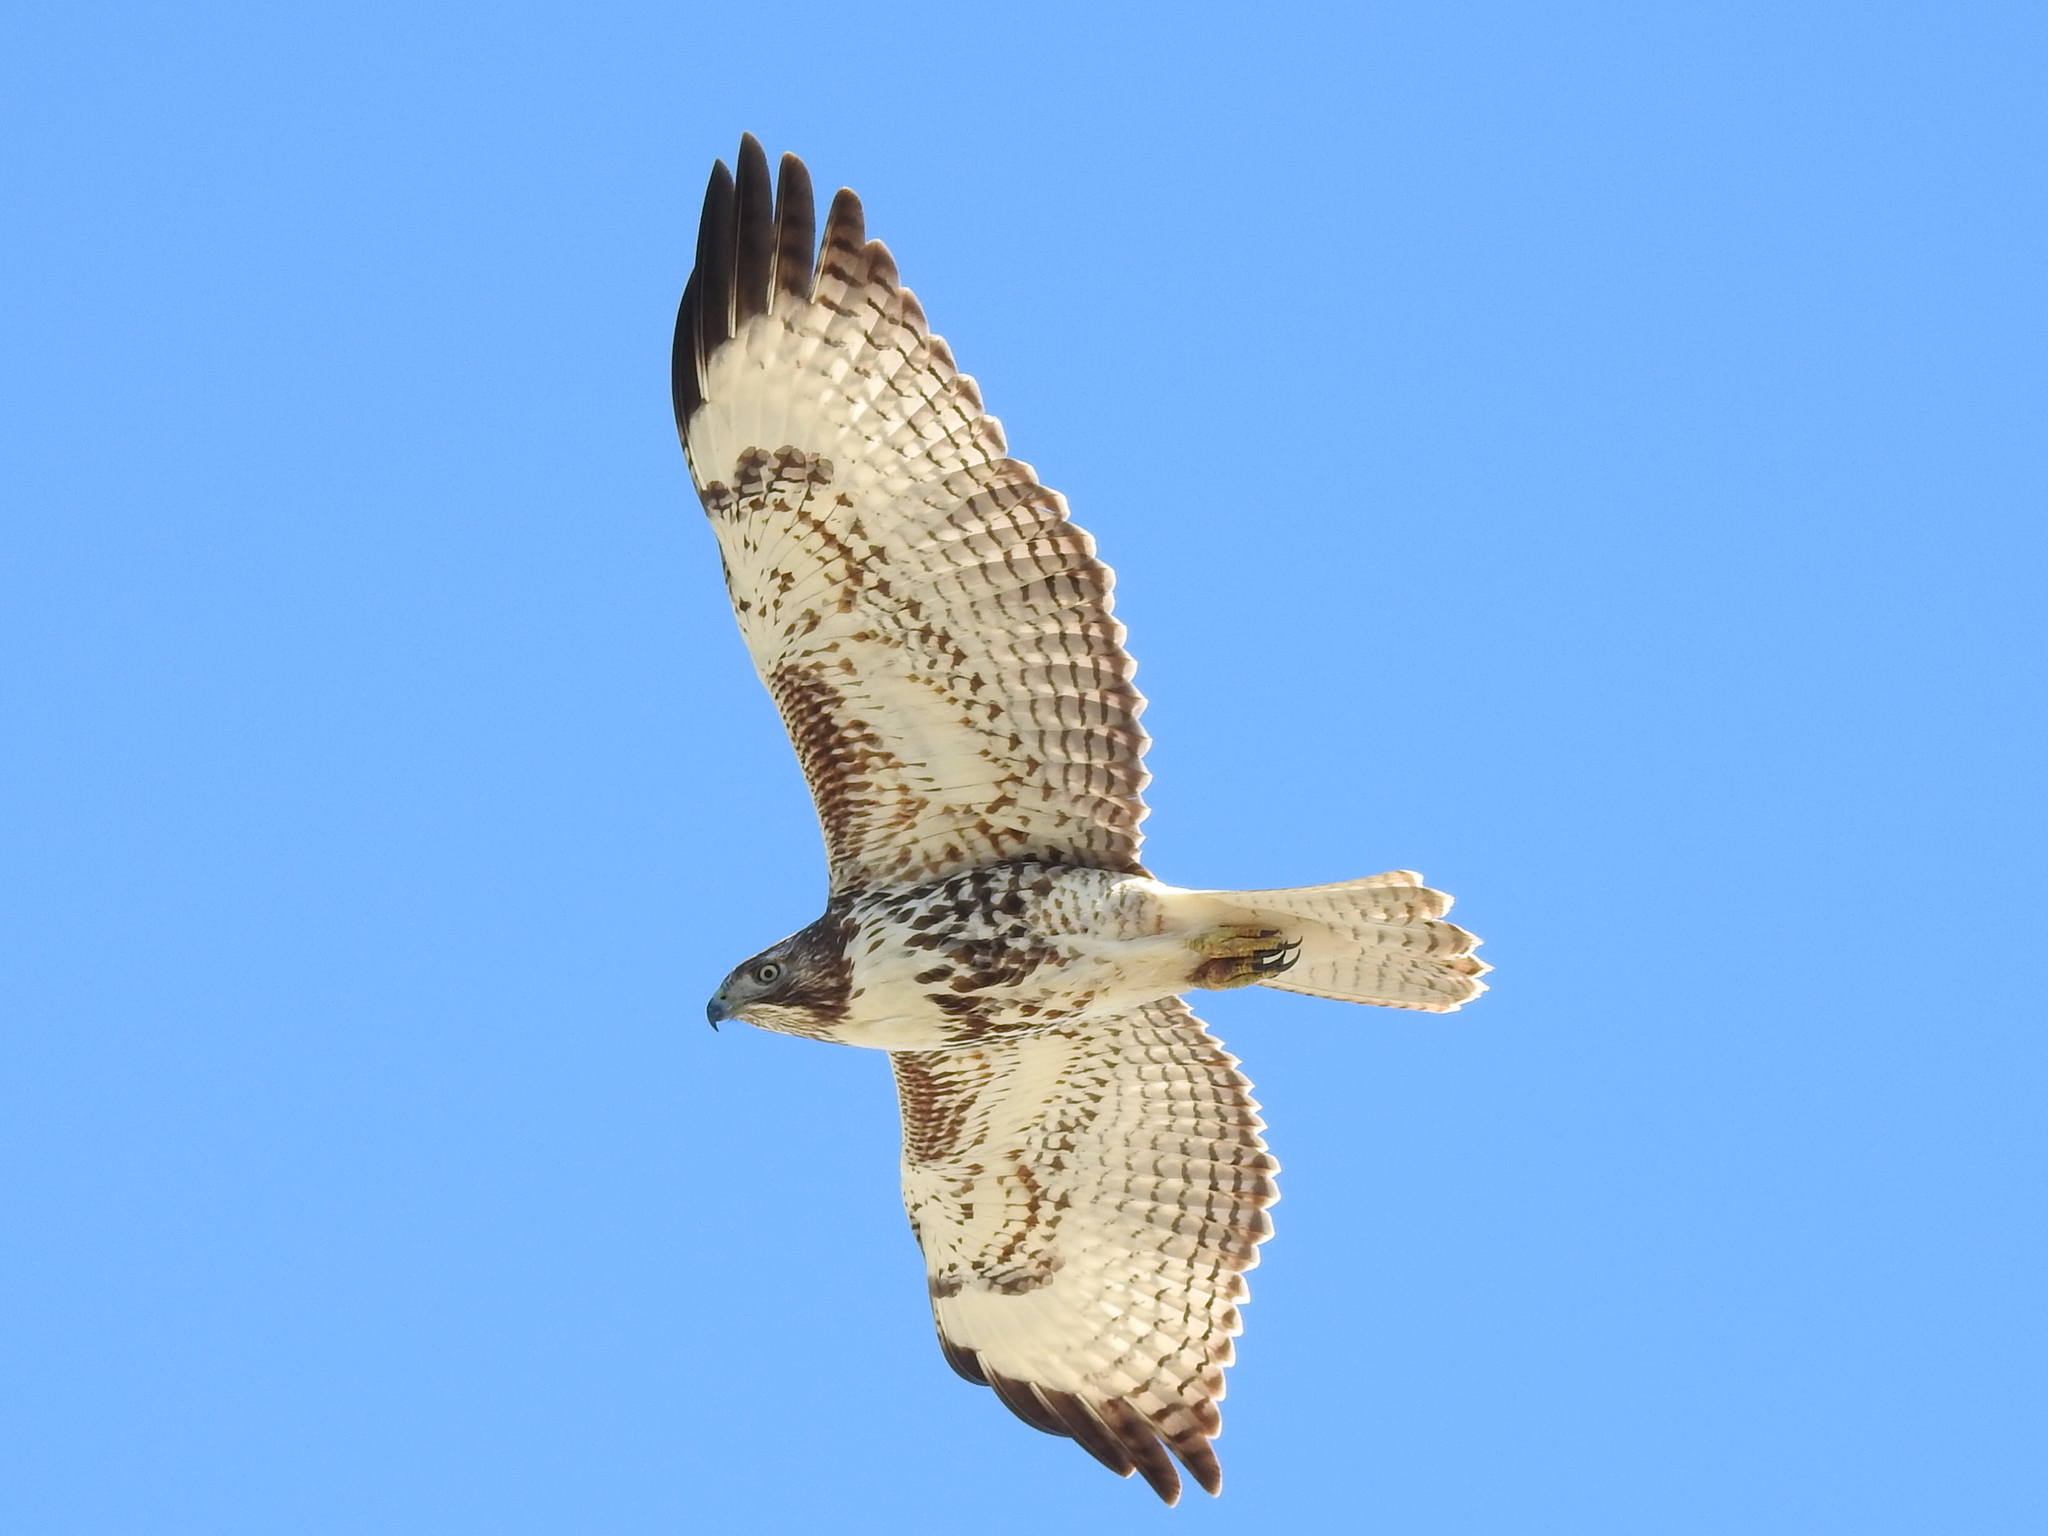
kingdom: Animalia
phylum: Chordata
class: Aves
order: Accipitriformes
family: Accipitridae
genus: Buteo
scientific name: Buteo jamaicensis
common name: Red-tailed hawk
